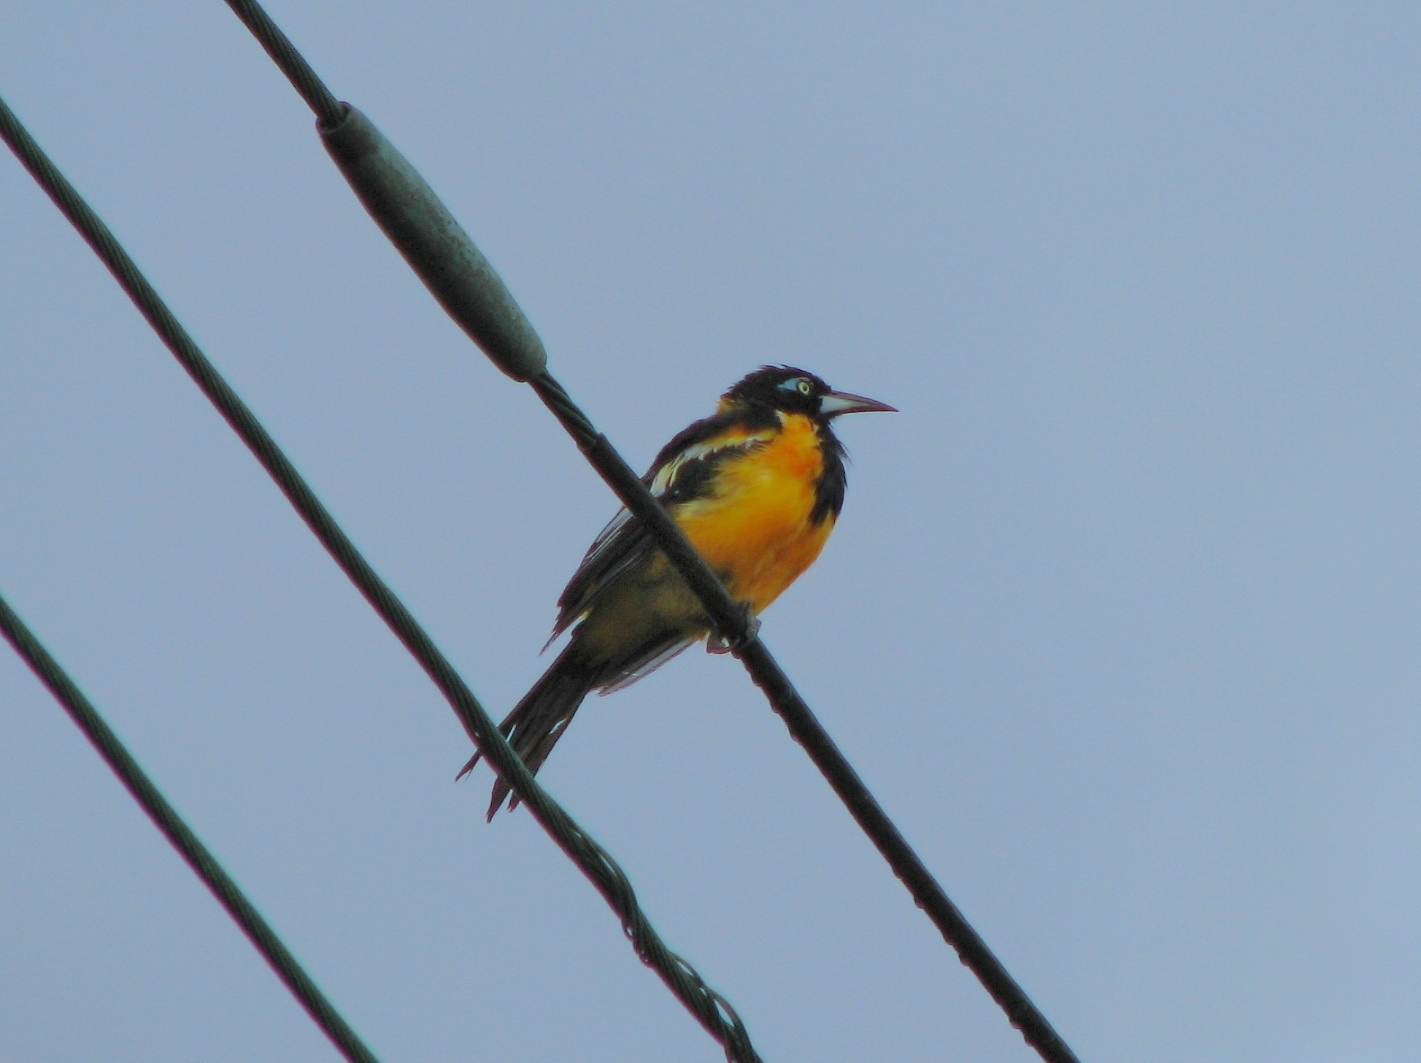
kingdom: Animalia
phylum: Chordata
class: Aves
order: Passeriformes
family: Icteridae
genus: Icterus
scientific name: Icterus icterus
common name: Venezuelan troupial
